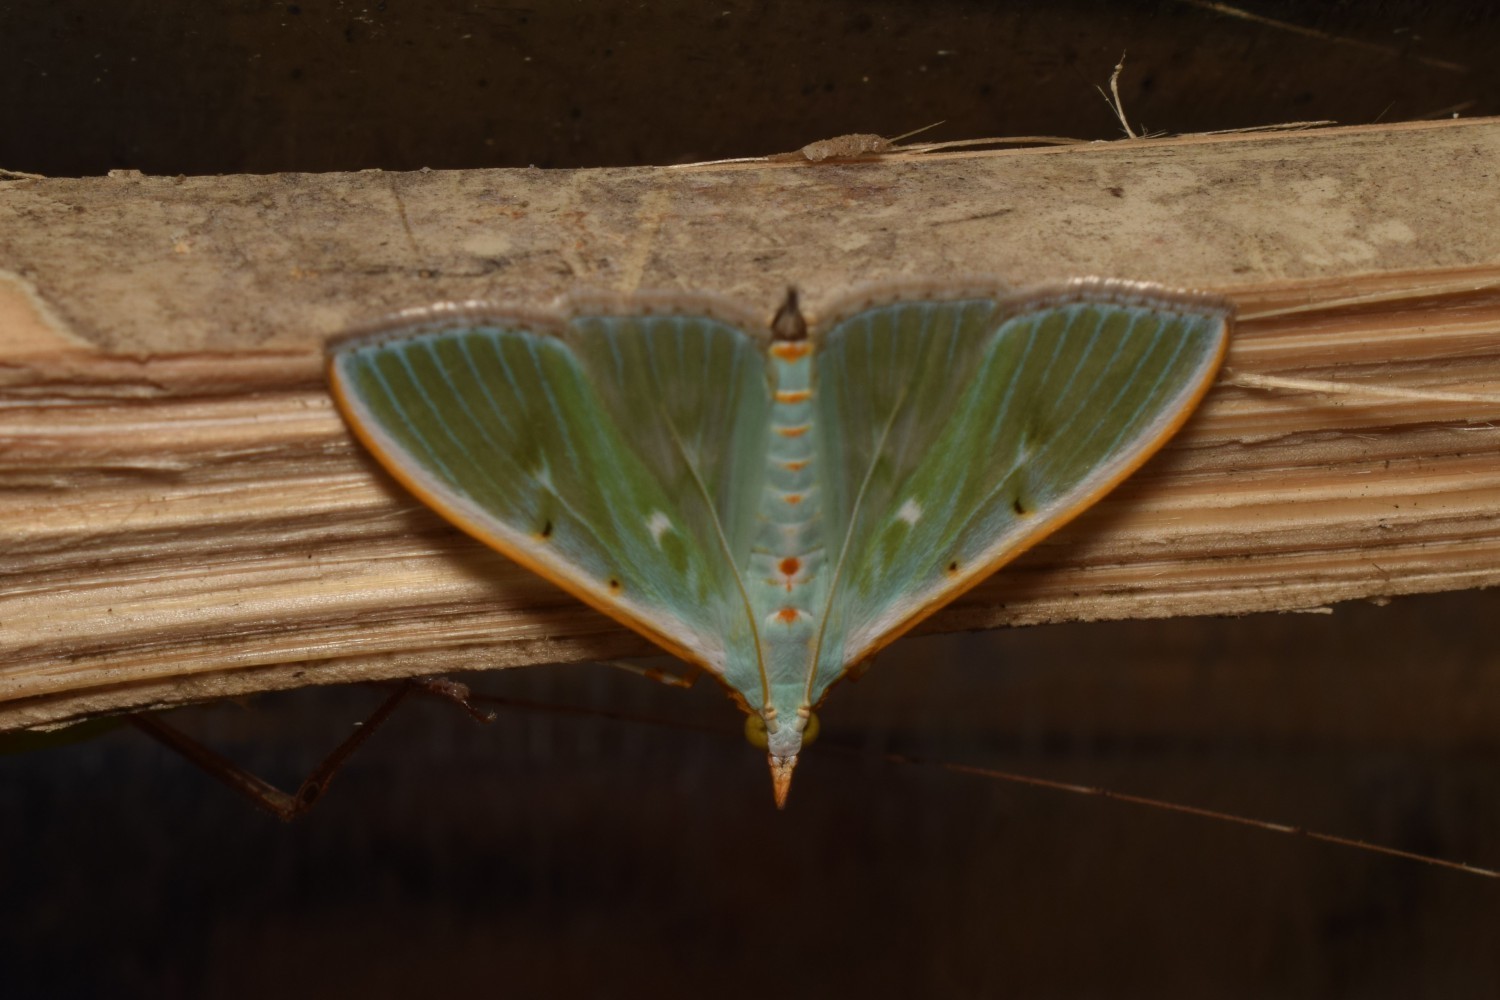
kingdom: Animalia
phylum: Arthropoda
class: Insecta
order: Lepidoptera
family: Crambidae
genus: Arthroschista
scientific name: Arthroschista hilaralis
